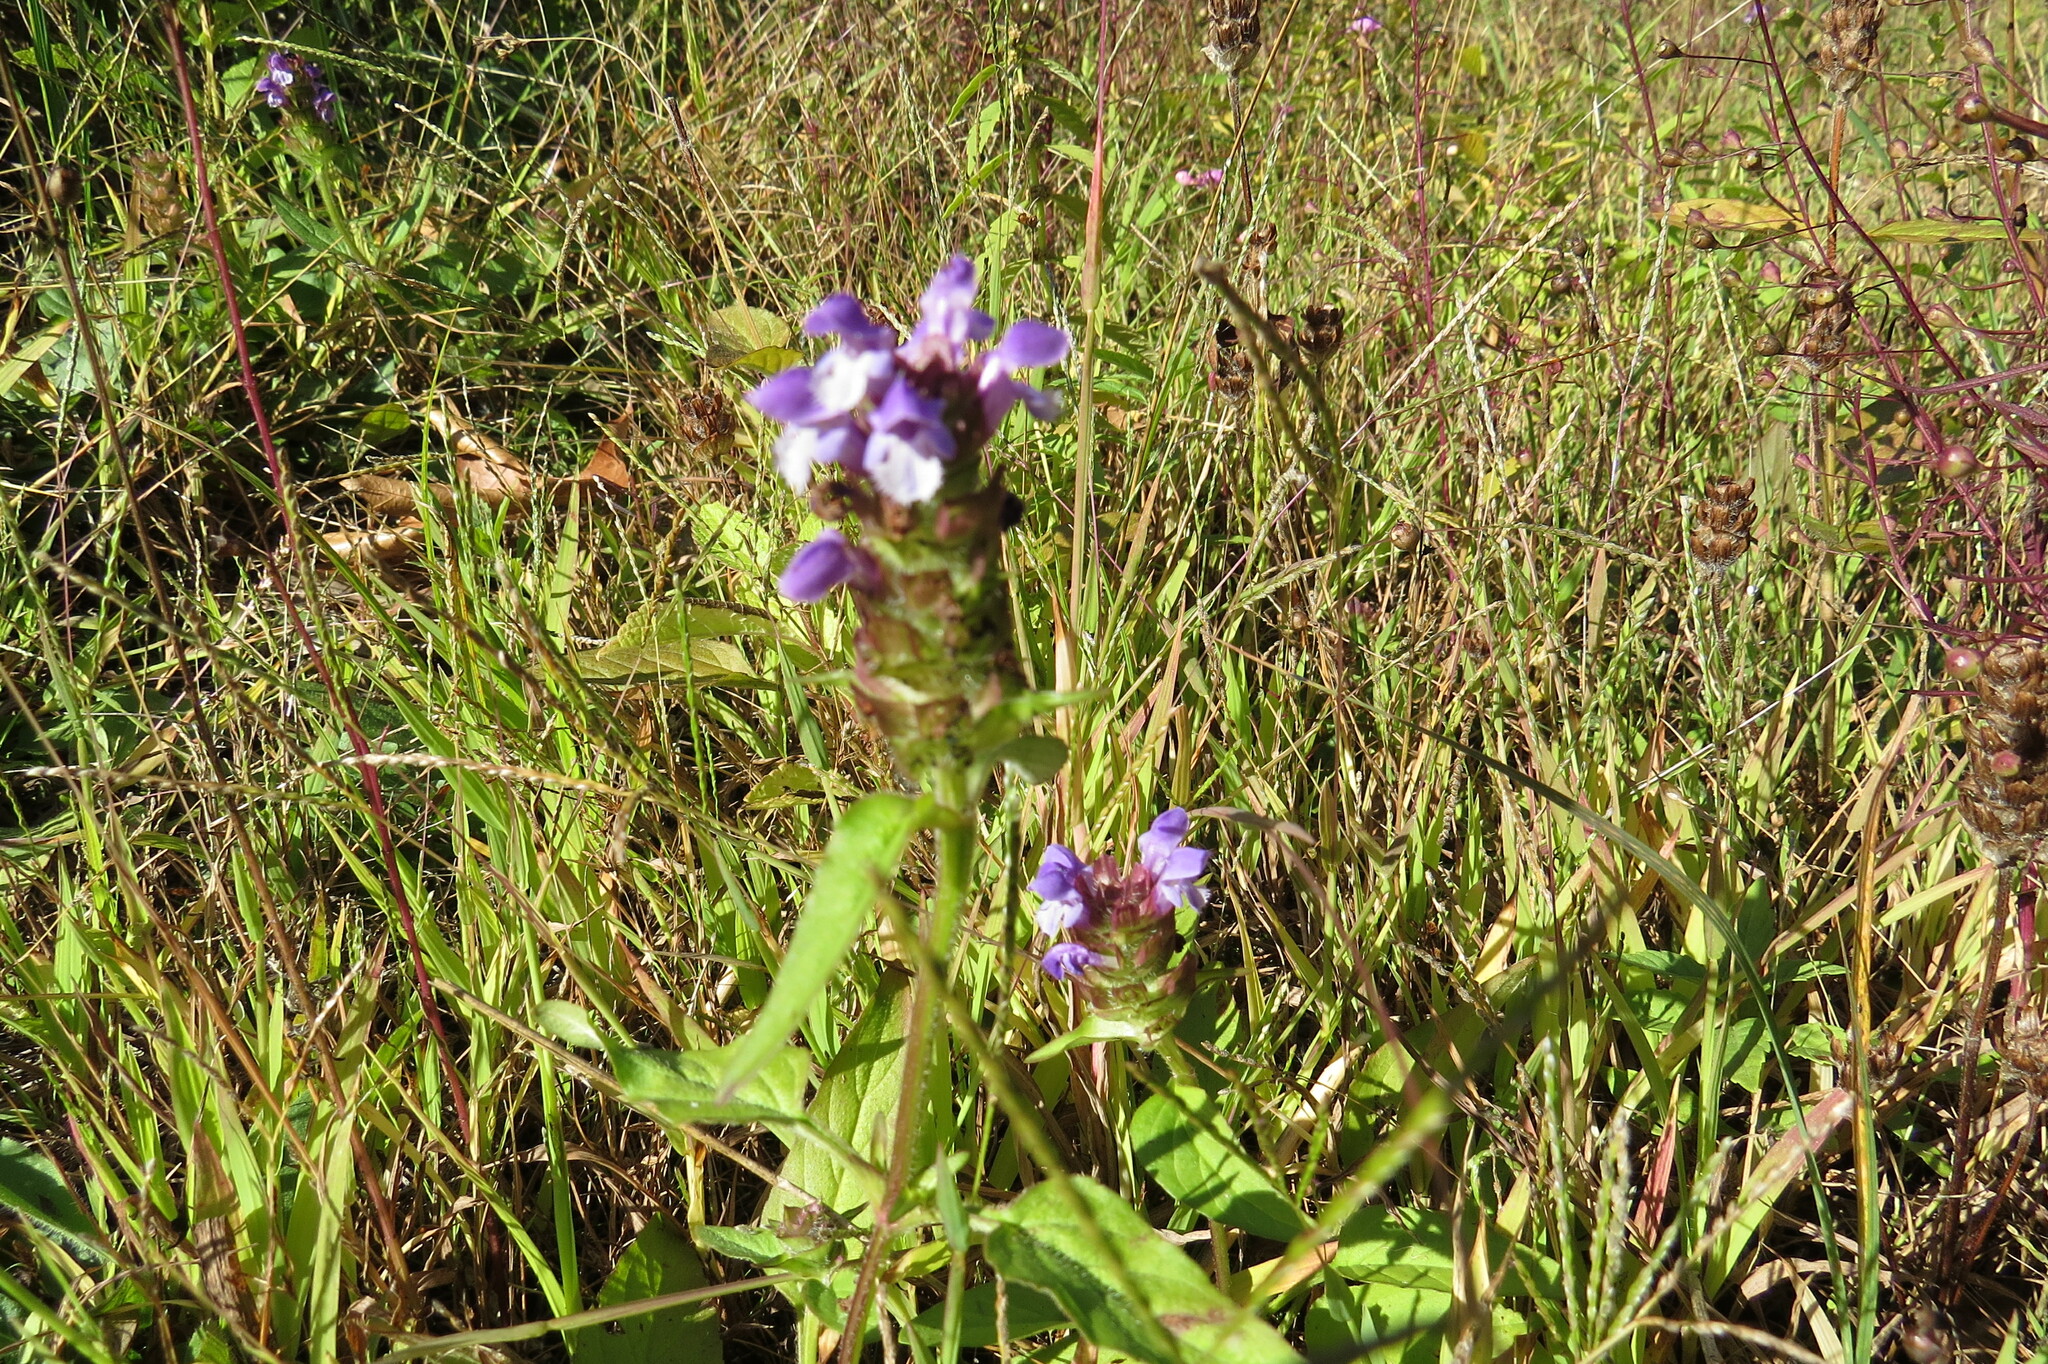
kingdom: Plantae
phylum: Tracheophyta
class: Magnoliopsida
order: Lamiales
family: Lamiaceae
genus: Prunella
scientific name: Prunella vulgaris
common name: Heal-all
